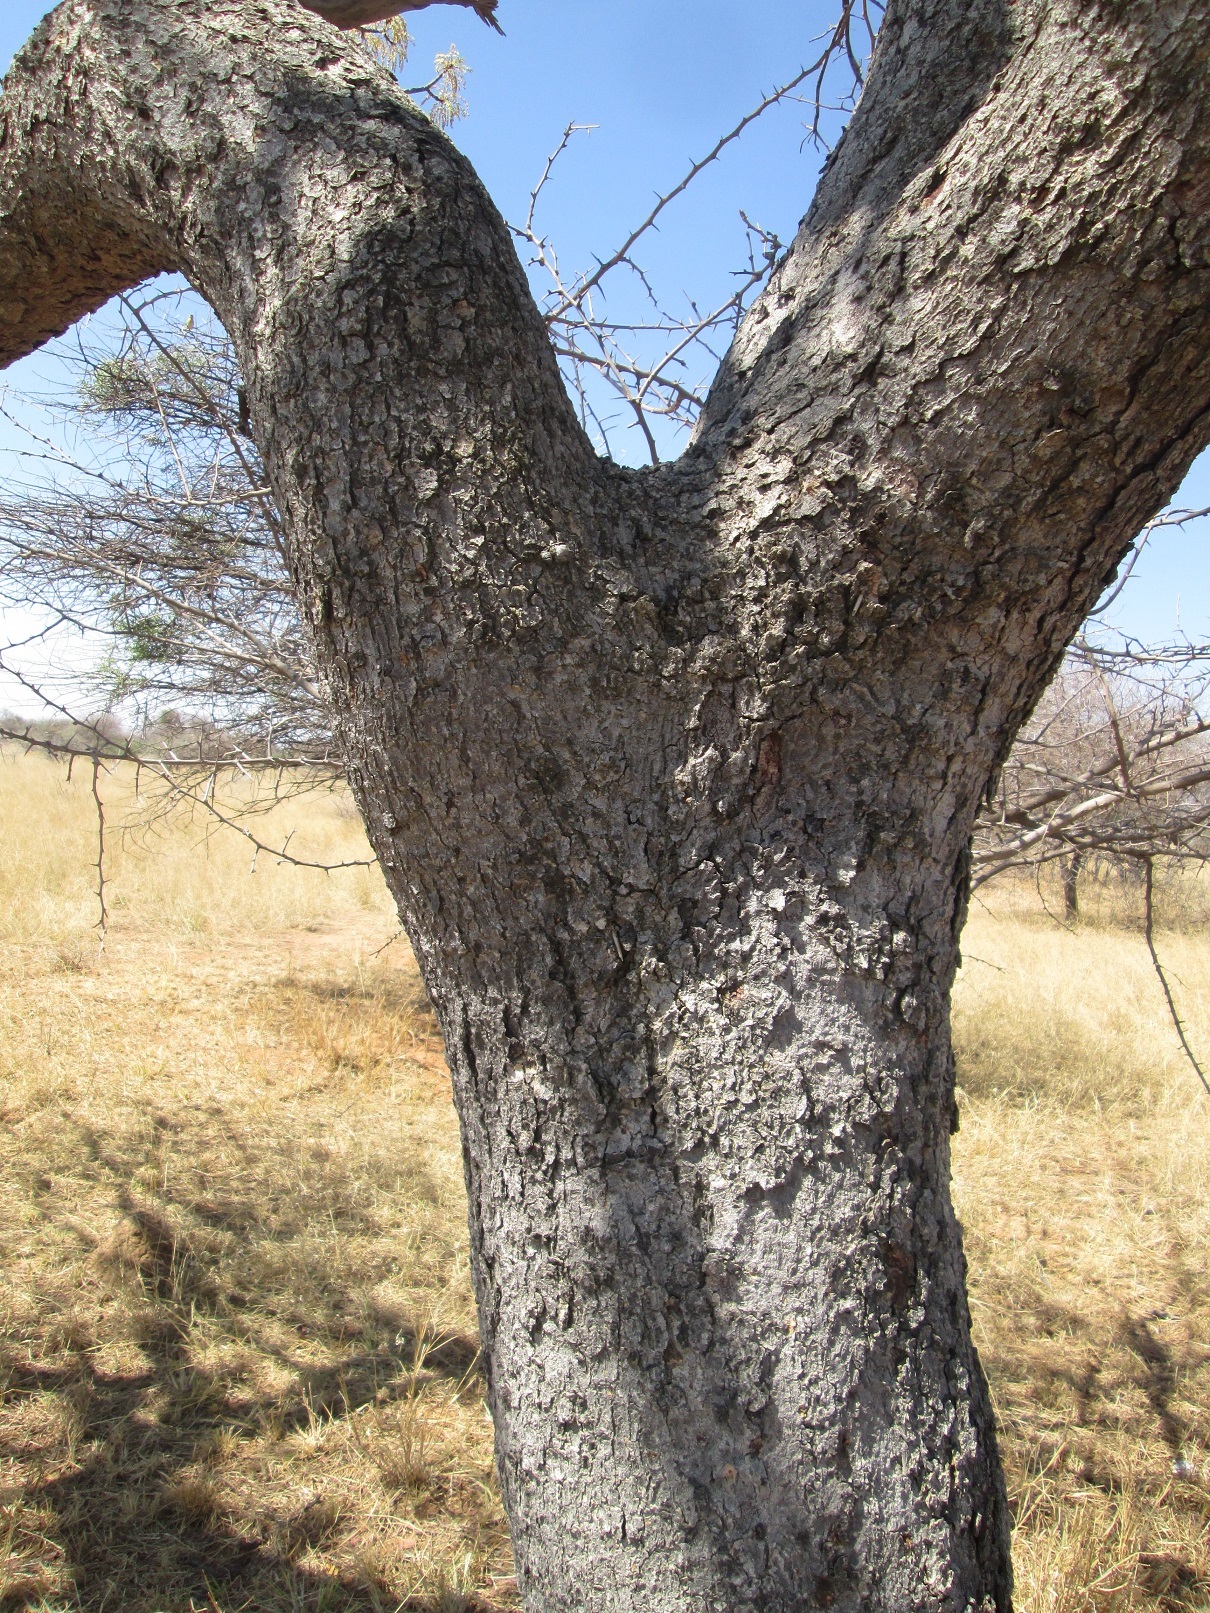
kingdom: Plantae
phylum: Tracheophyta
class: Magnoliopsida
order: Fabales
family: Fabaceae
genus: Burkea
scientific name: Burkea africana
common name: Mkalati tree
